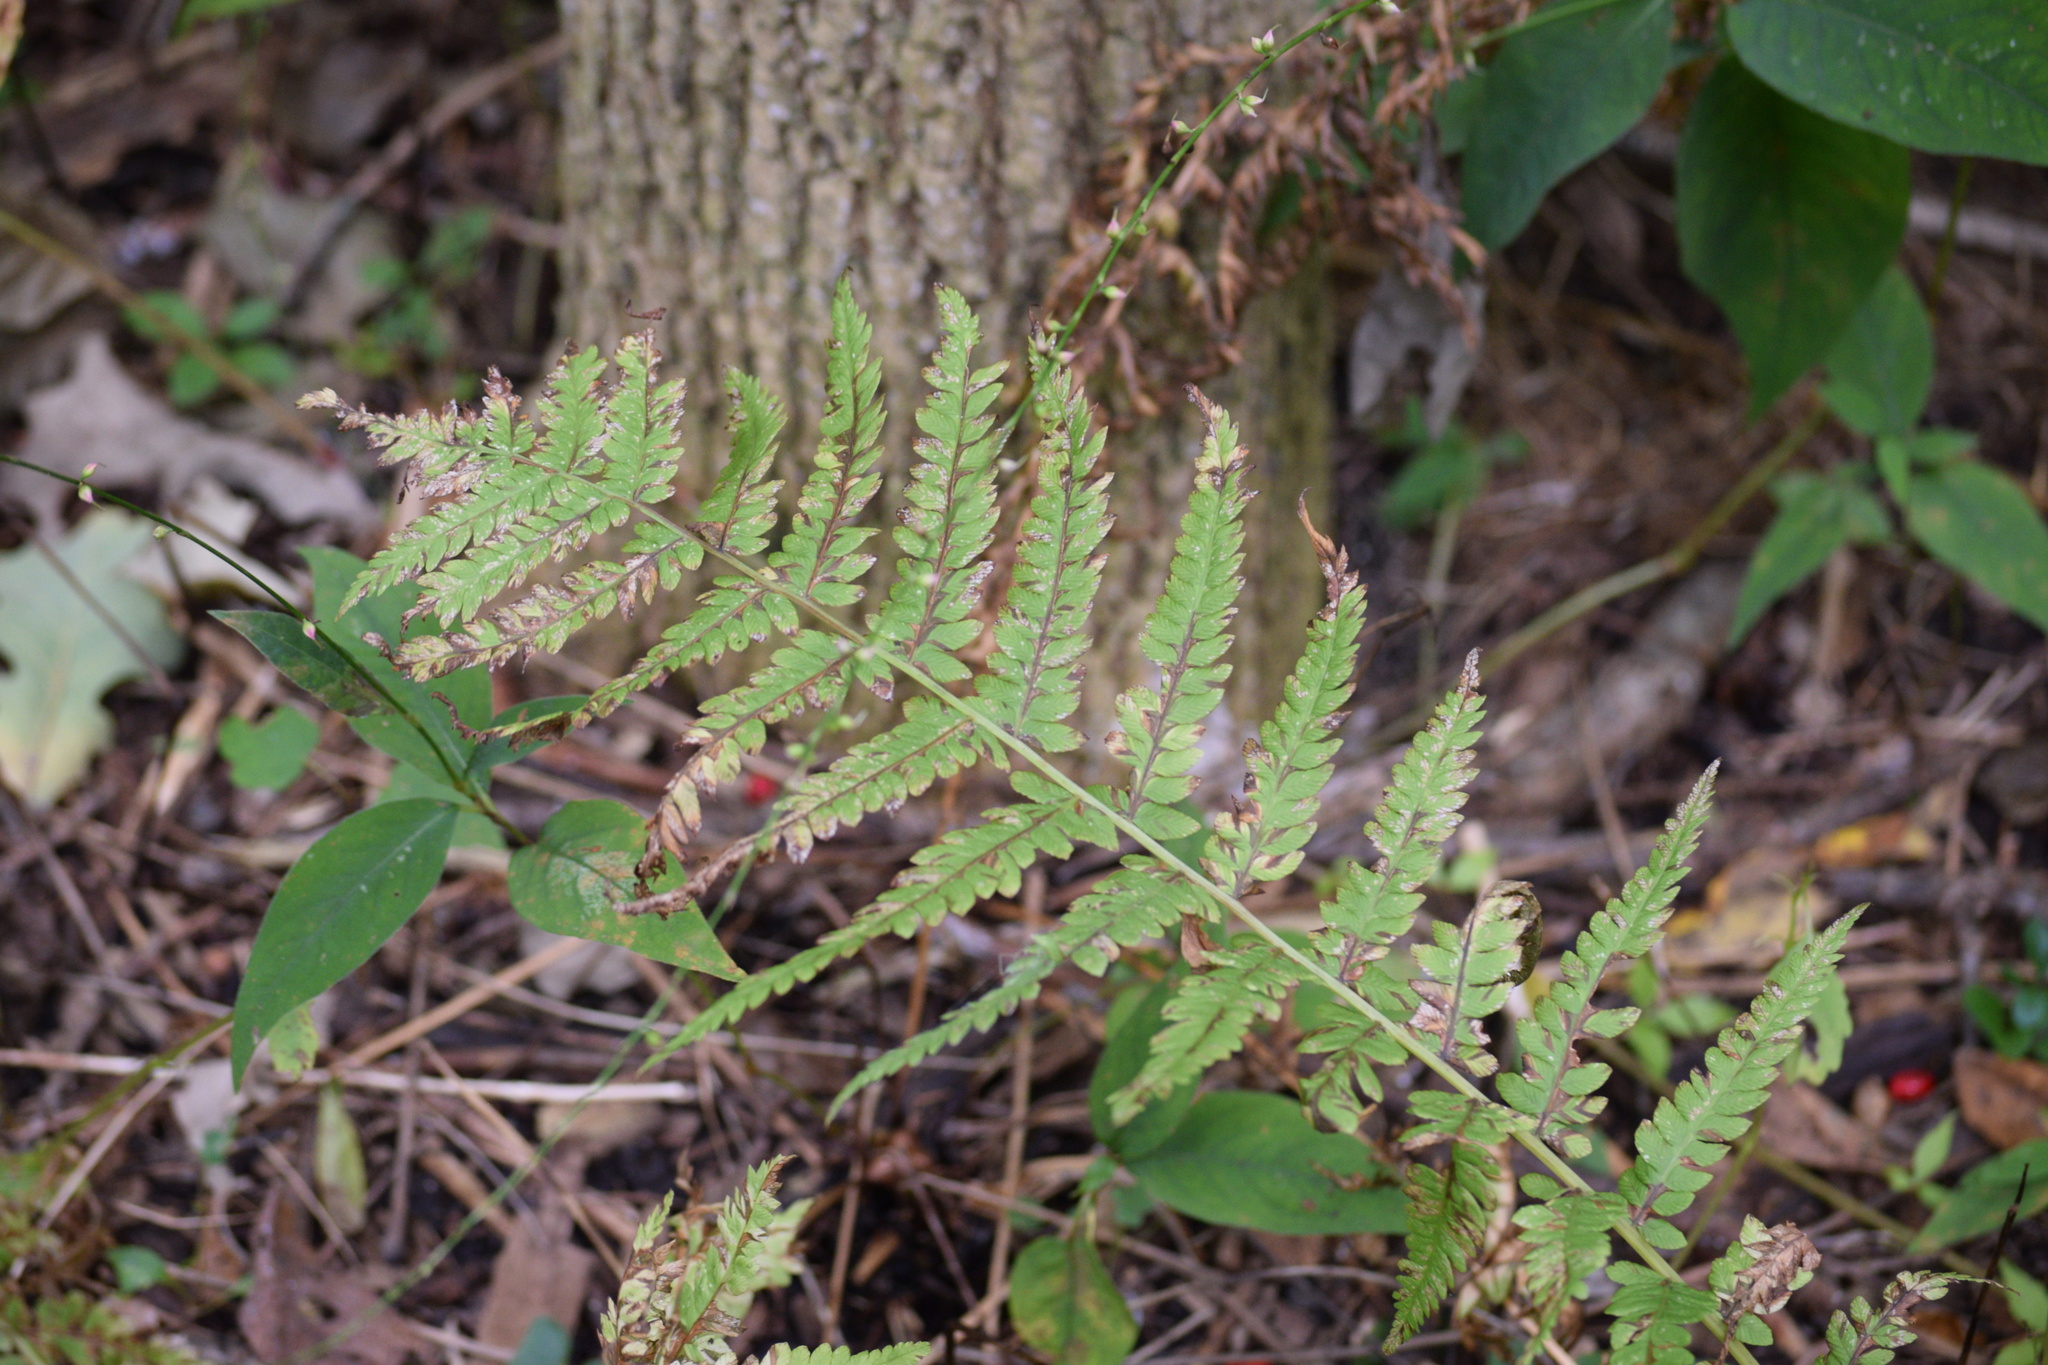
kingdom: Plantae
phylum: Tracheophyta
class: Polypodiopsida
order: Polypodiales
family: Onocleaceae
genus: Matteuccia
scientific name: Matteuccia struthiopteris
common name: Ostrich fern
